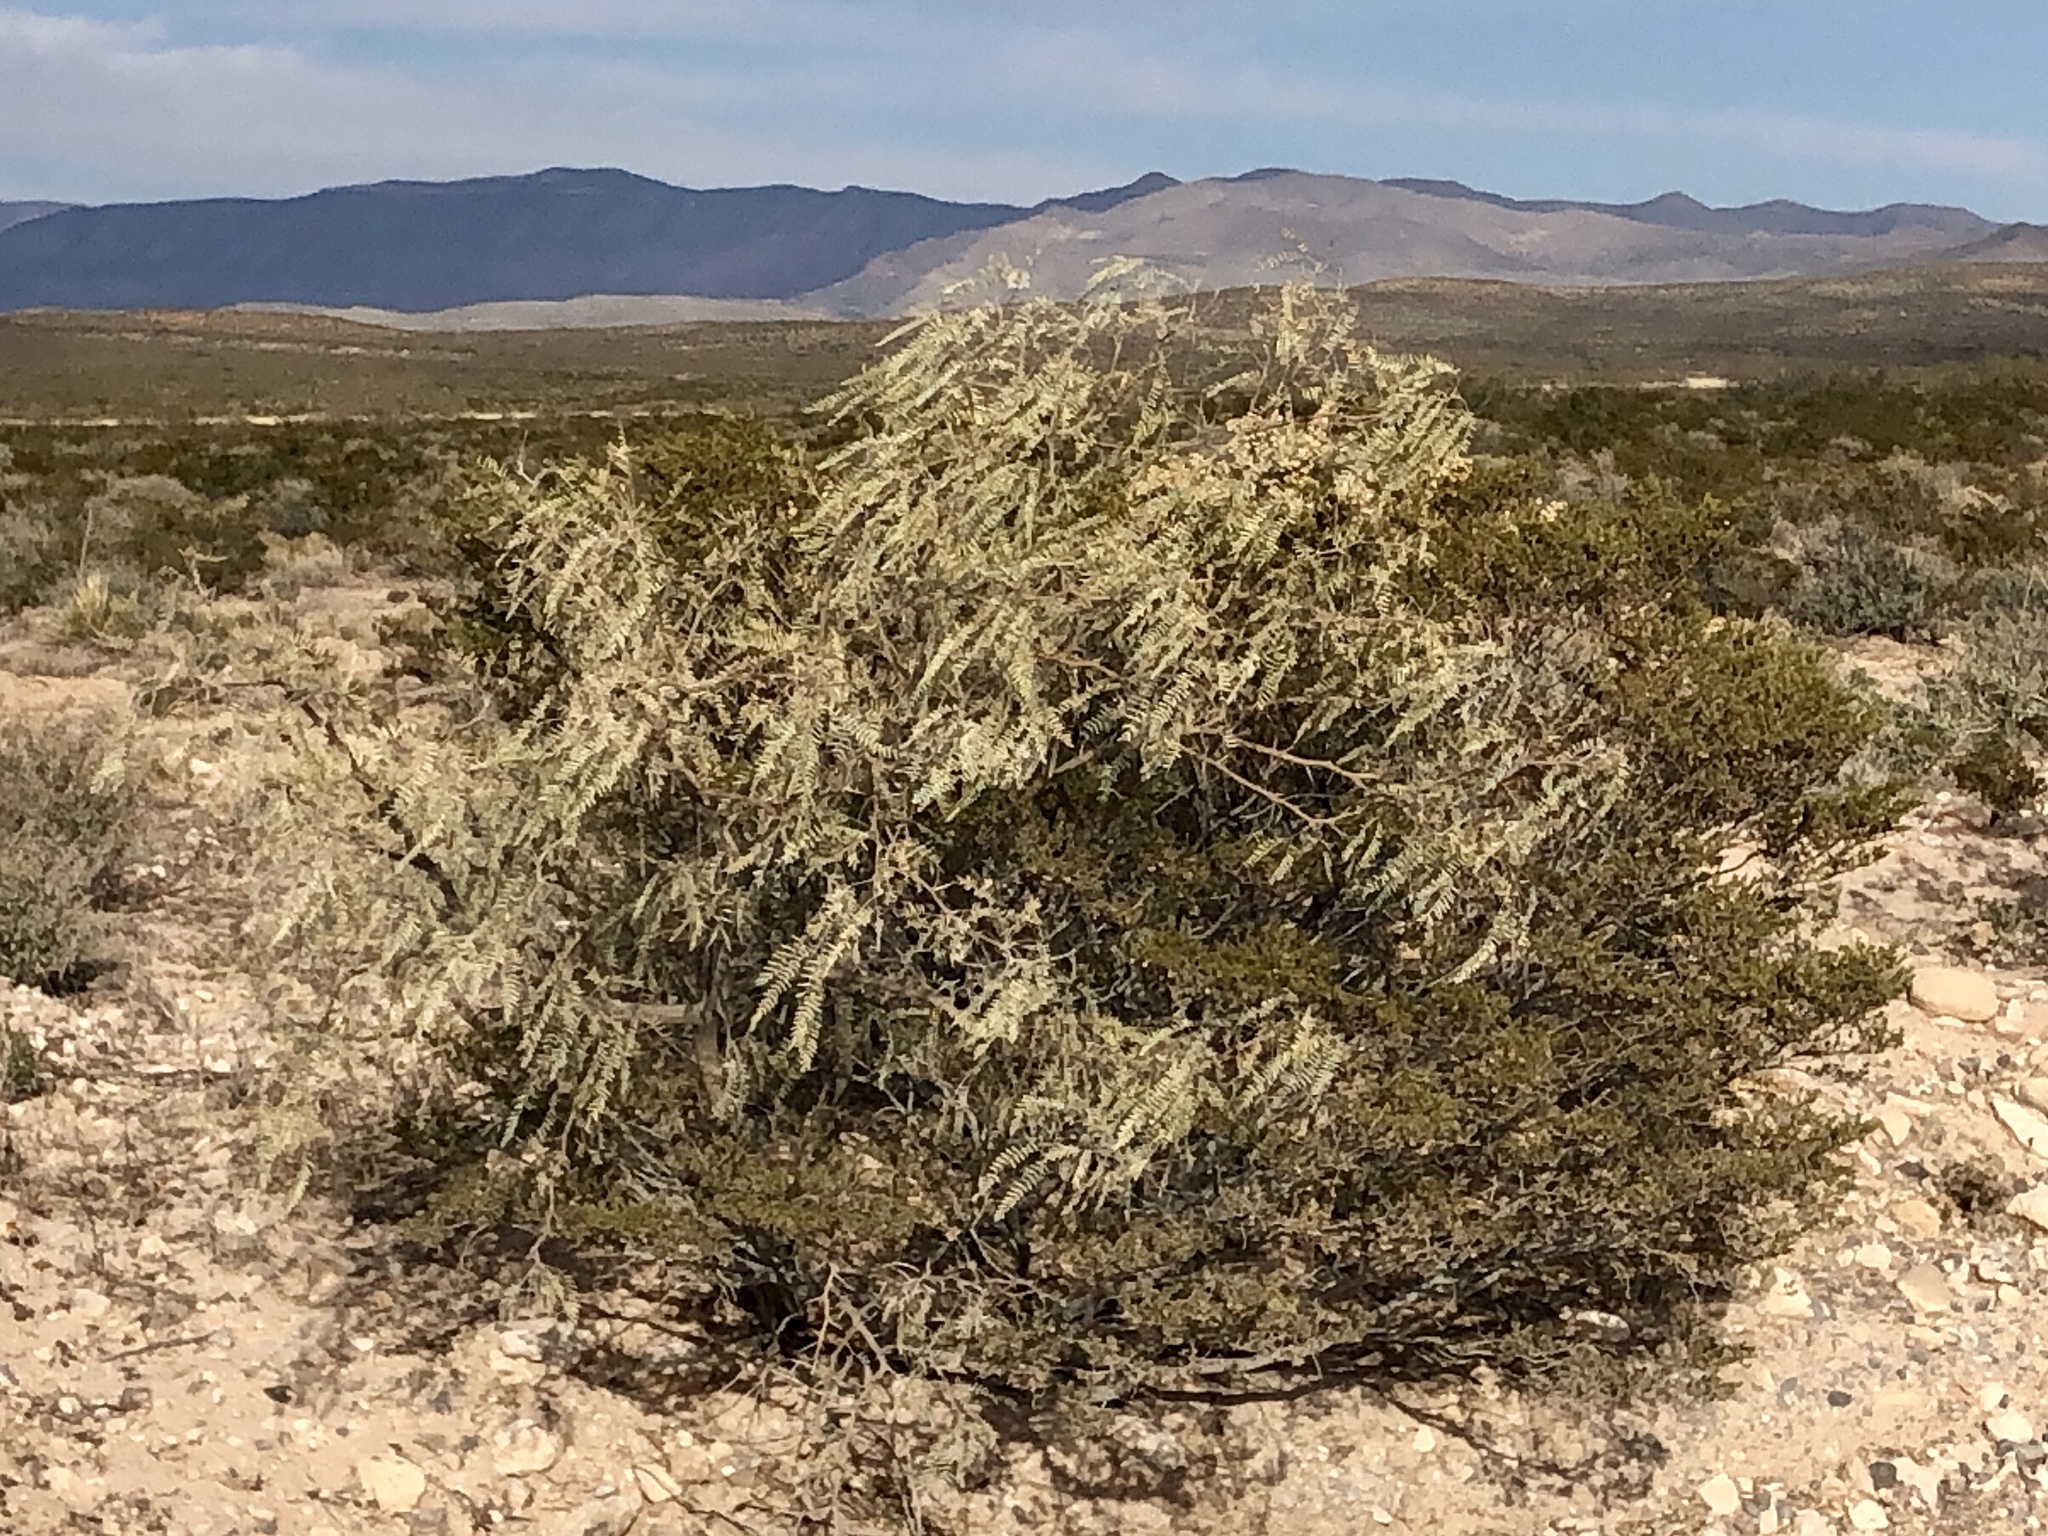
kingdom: Plantae
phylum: Tracheophyta
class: Magnoliopsida
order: Fabales
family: Fabaceae
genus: Prosopis
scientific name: Prosopis glandulosa
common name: Honey mesquite
